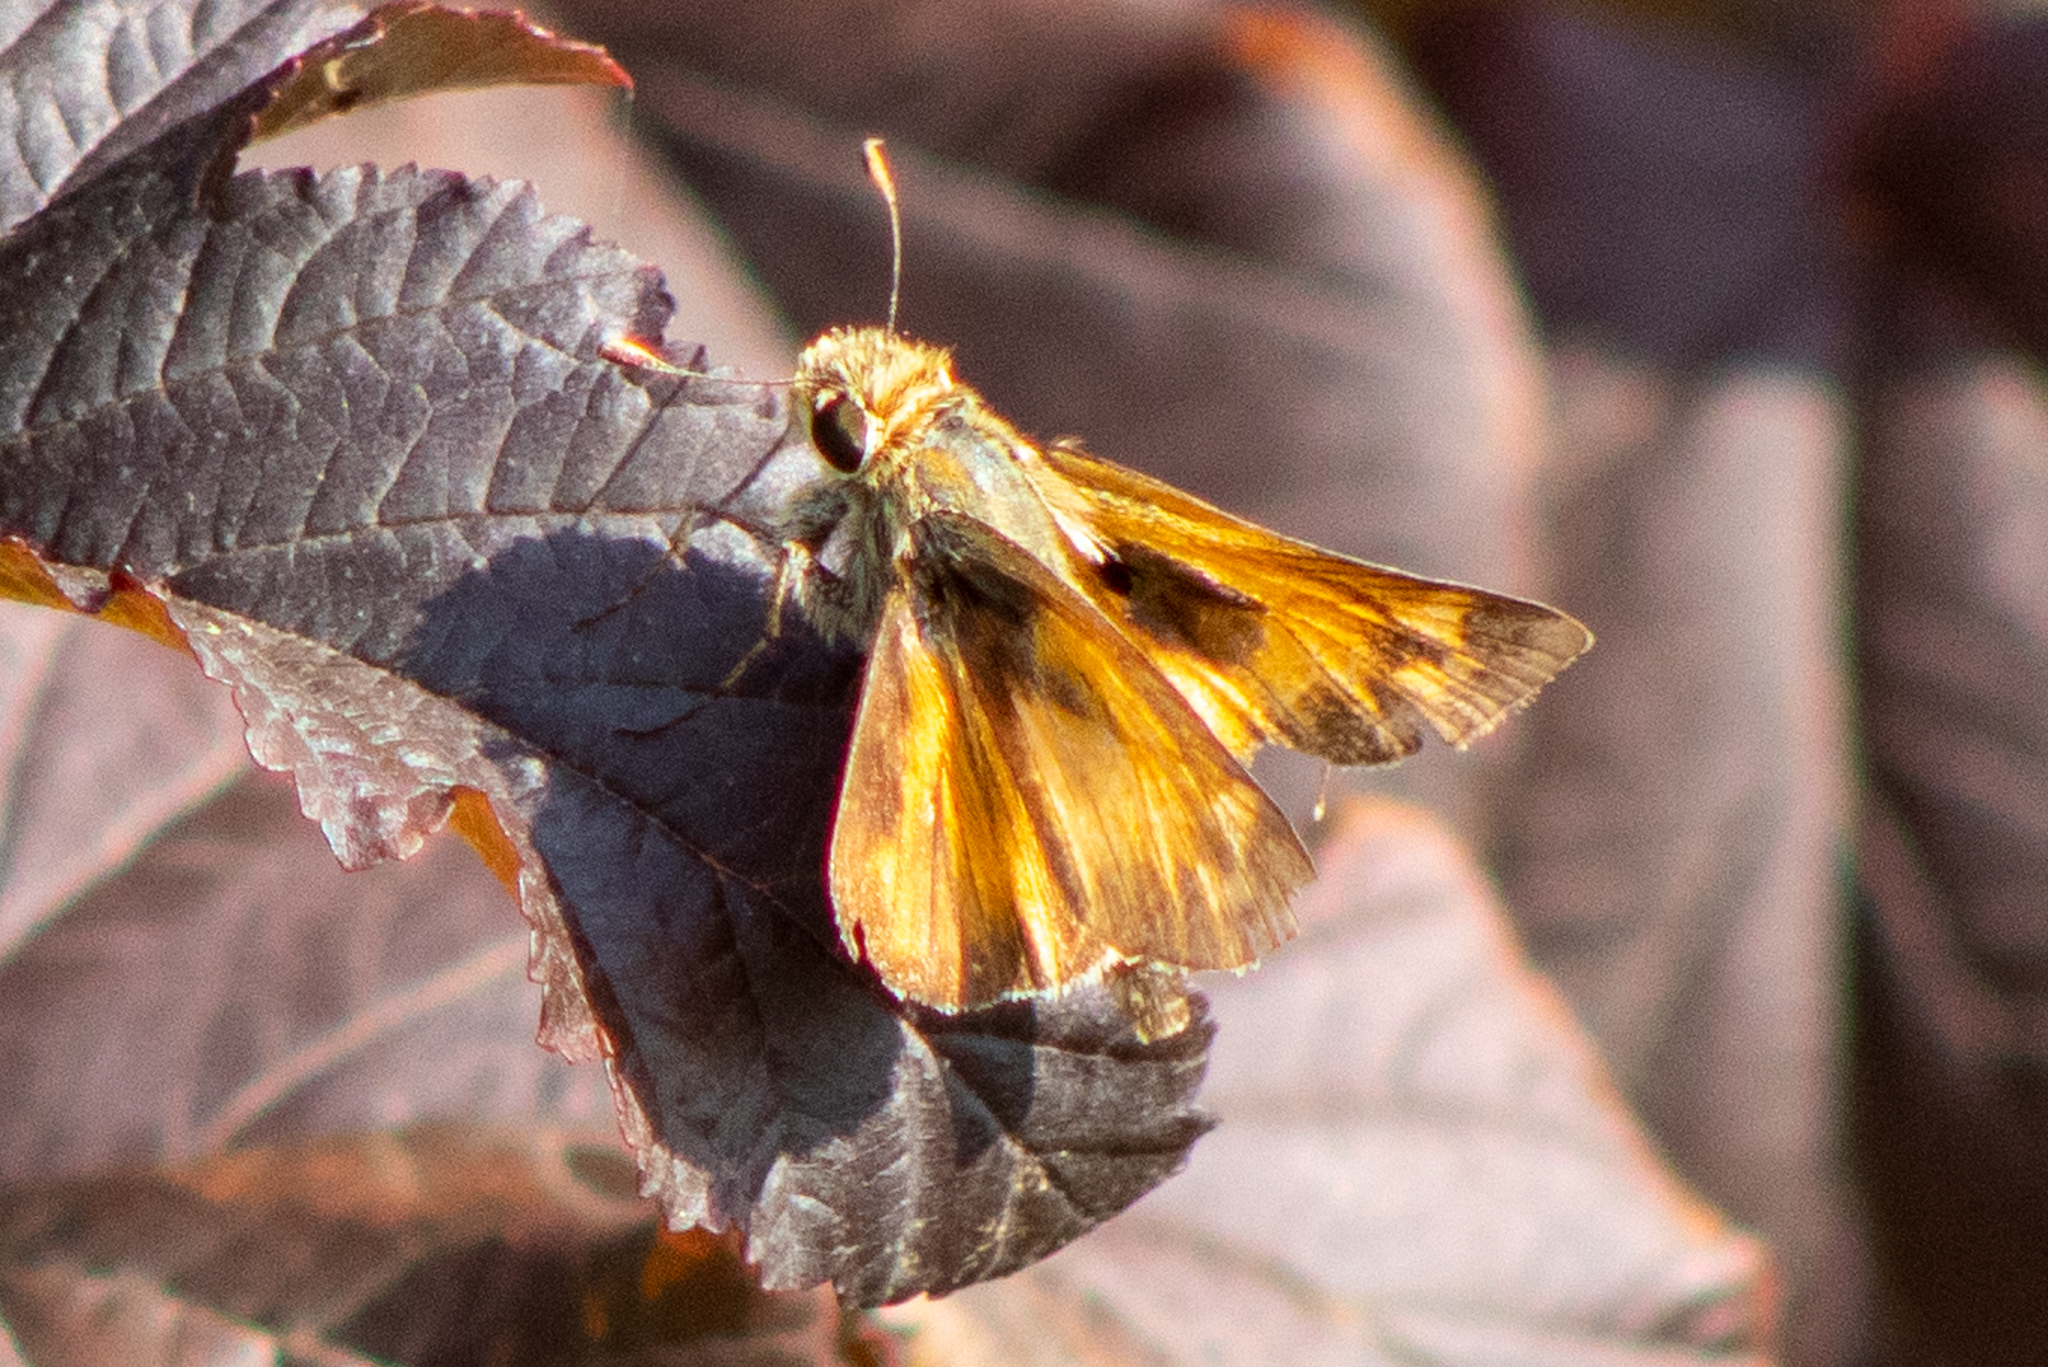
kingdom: Animalia
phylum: Arthropoda
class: Insecta
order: Lepidoptera
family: Hesperiidae
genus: Atalopedes
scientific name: Atalopedes
